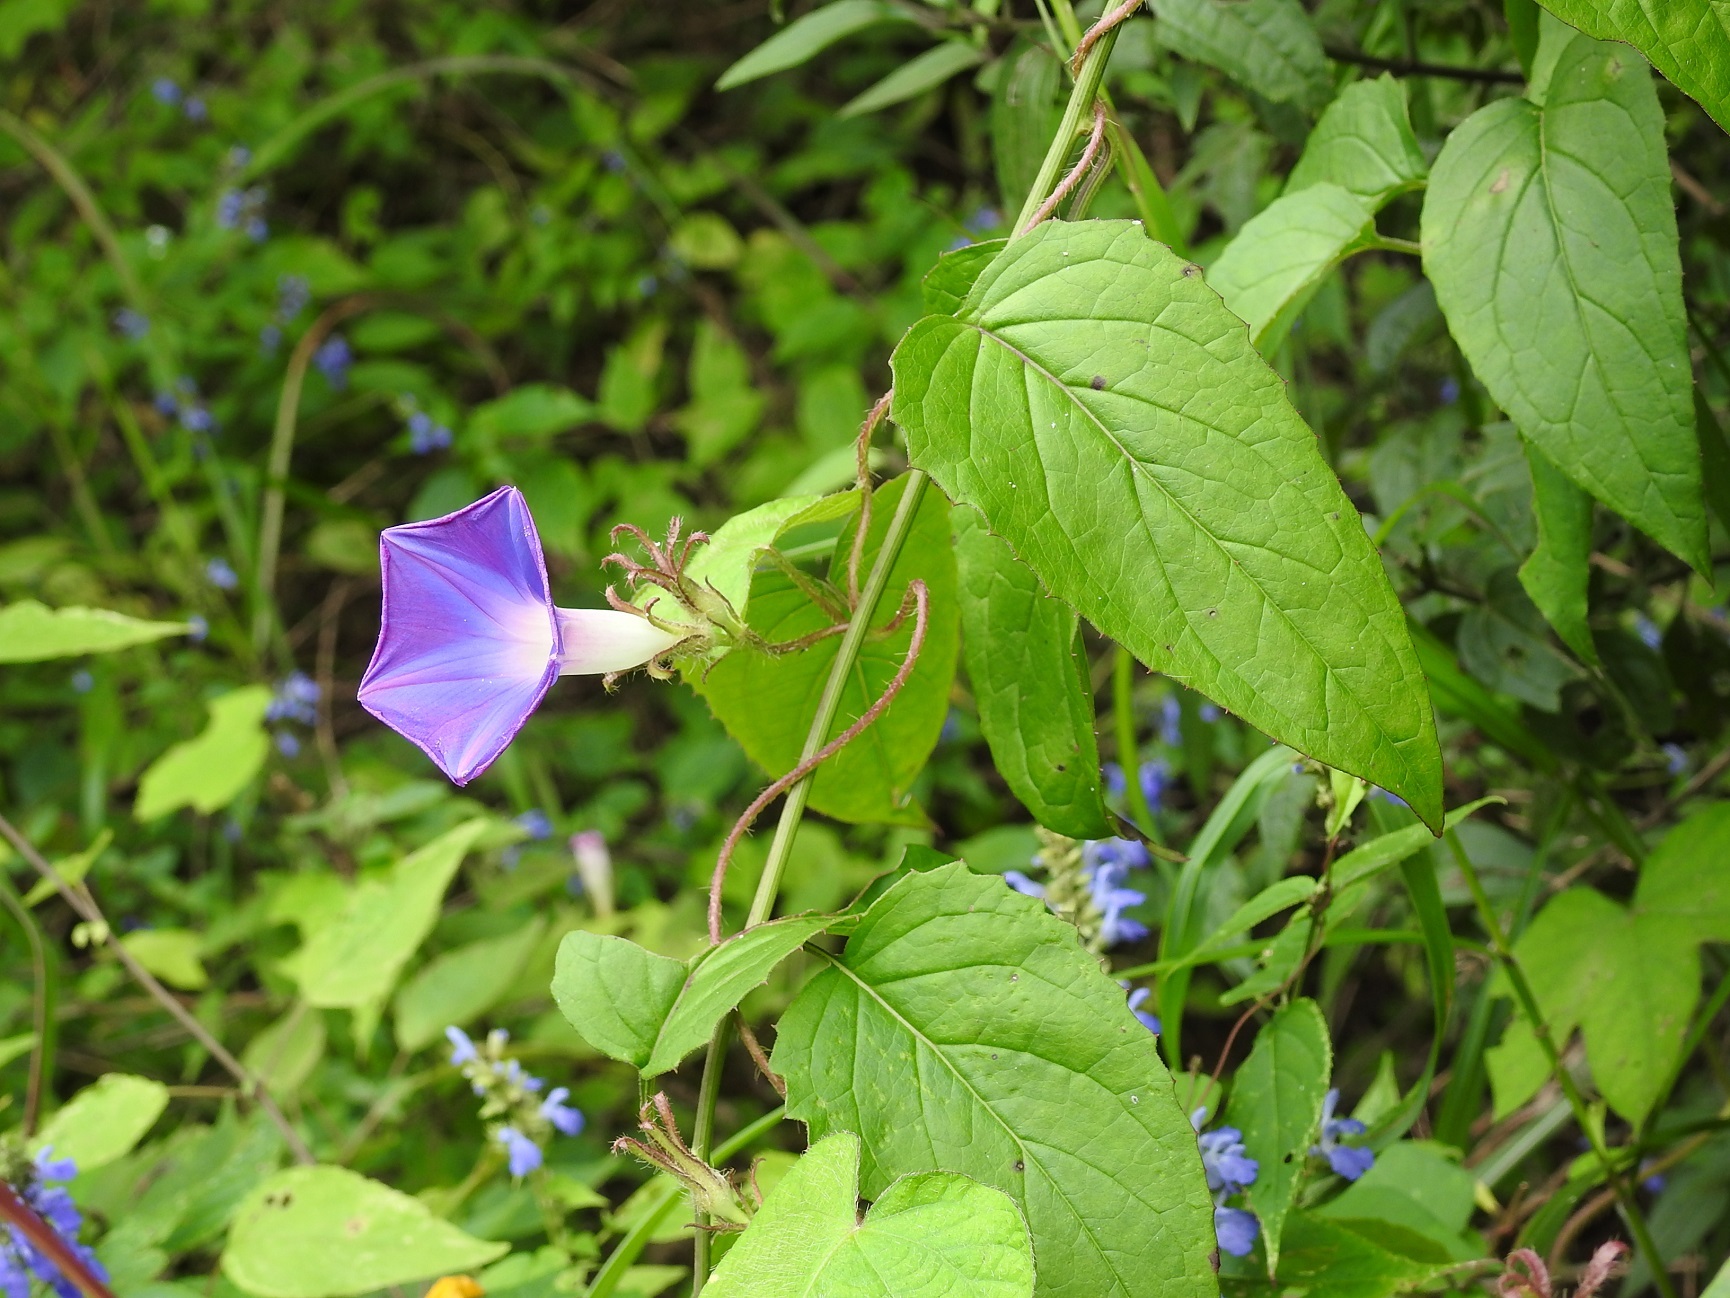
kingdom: Plantae
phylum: Tracheophyta
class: Magnoliopsida
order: Solanales
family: Convolvulaceae
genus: Ipomoea
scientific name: Ipomoea nil
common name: Japanese morning-glory
